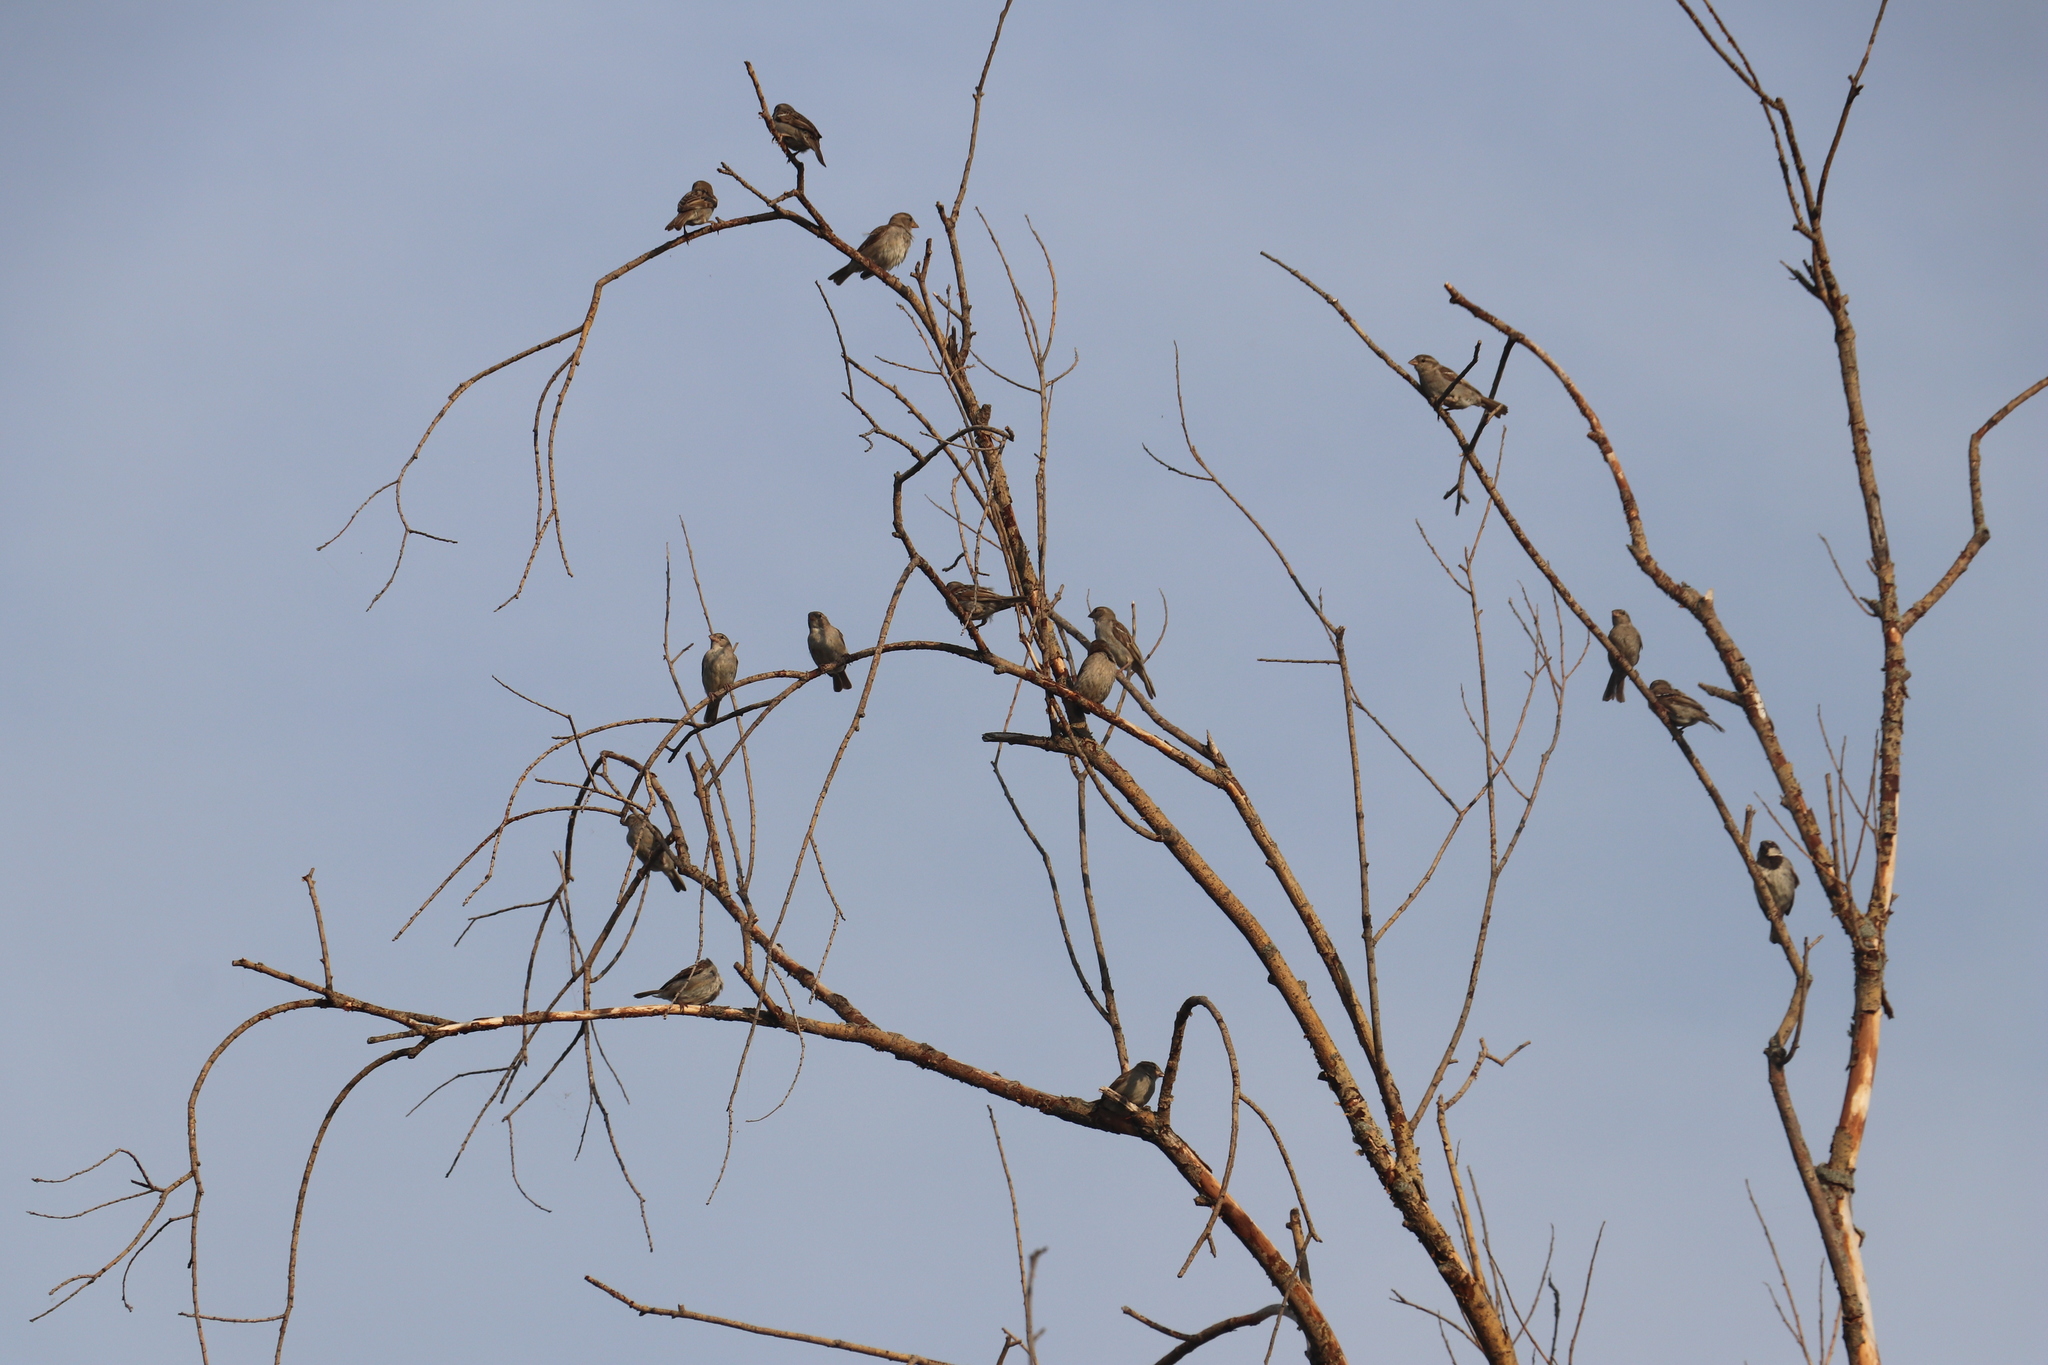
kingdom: Animalia
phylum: Chordata
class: Aves
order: Passeriformes
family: Passeridae
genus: Passer
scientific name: Passer domesticus
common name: House sparrow
